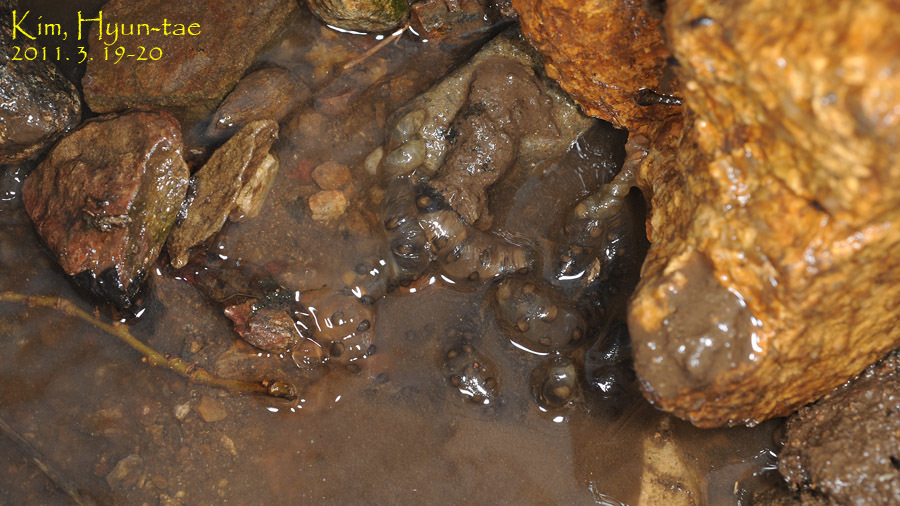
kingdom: Animalia
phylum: Chordata
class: Amphibia
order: Caudata
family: Hynobiidae
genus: Hynobius
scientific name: Hynobius leechii
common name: Gensan salamander
